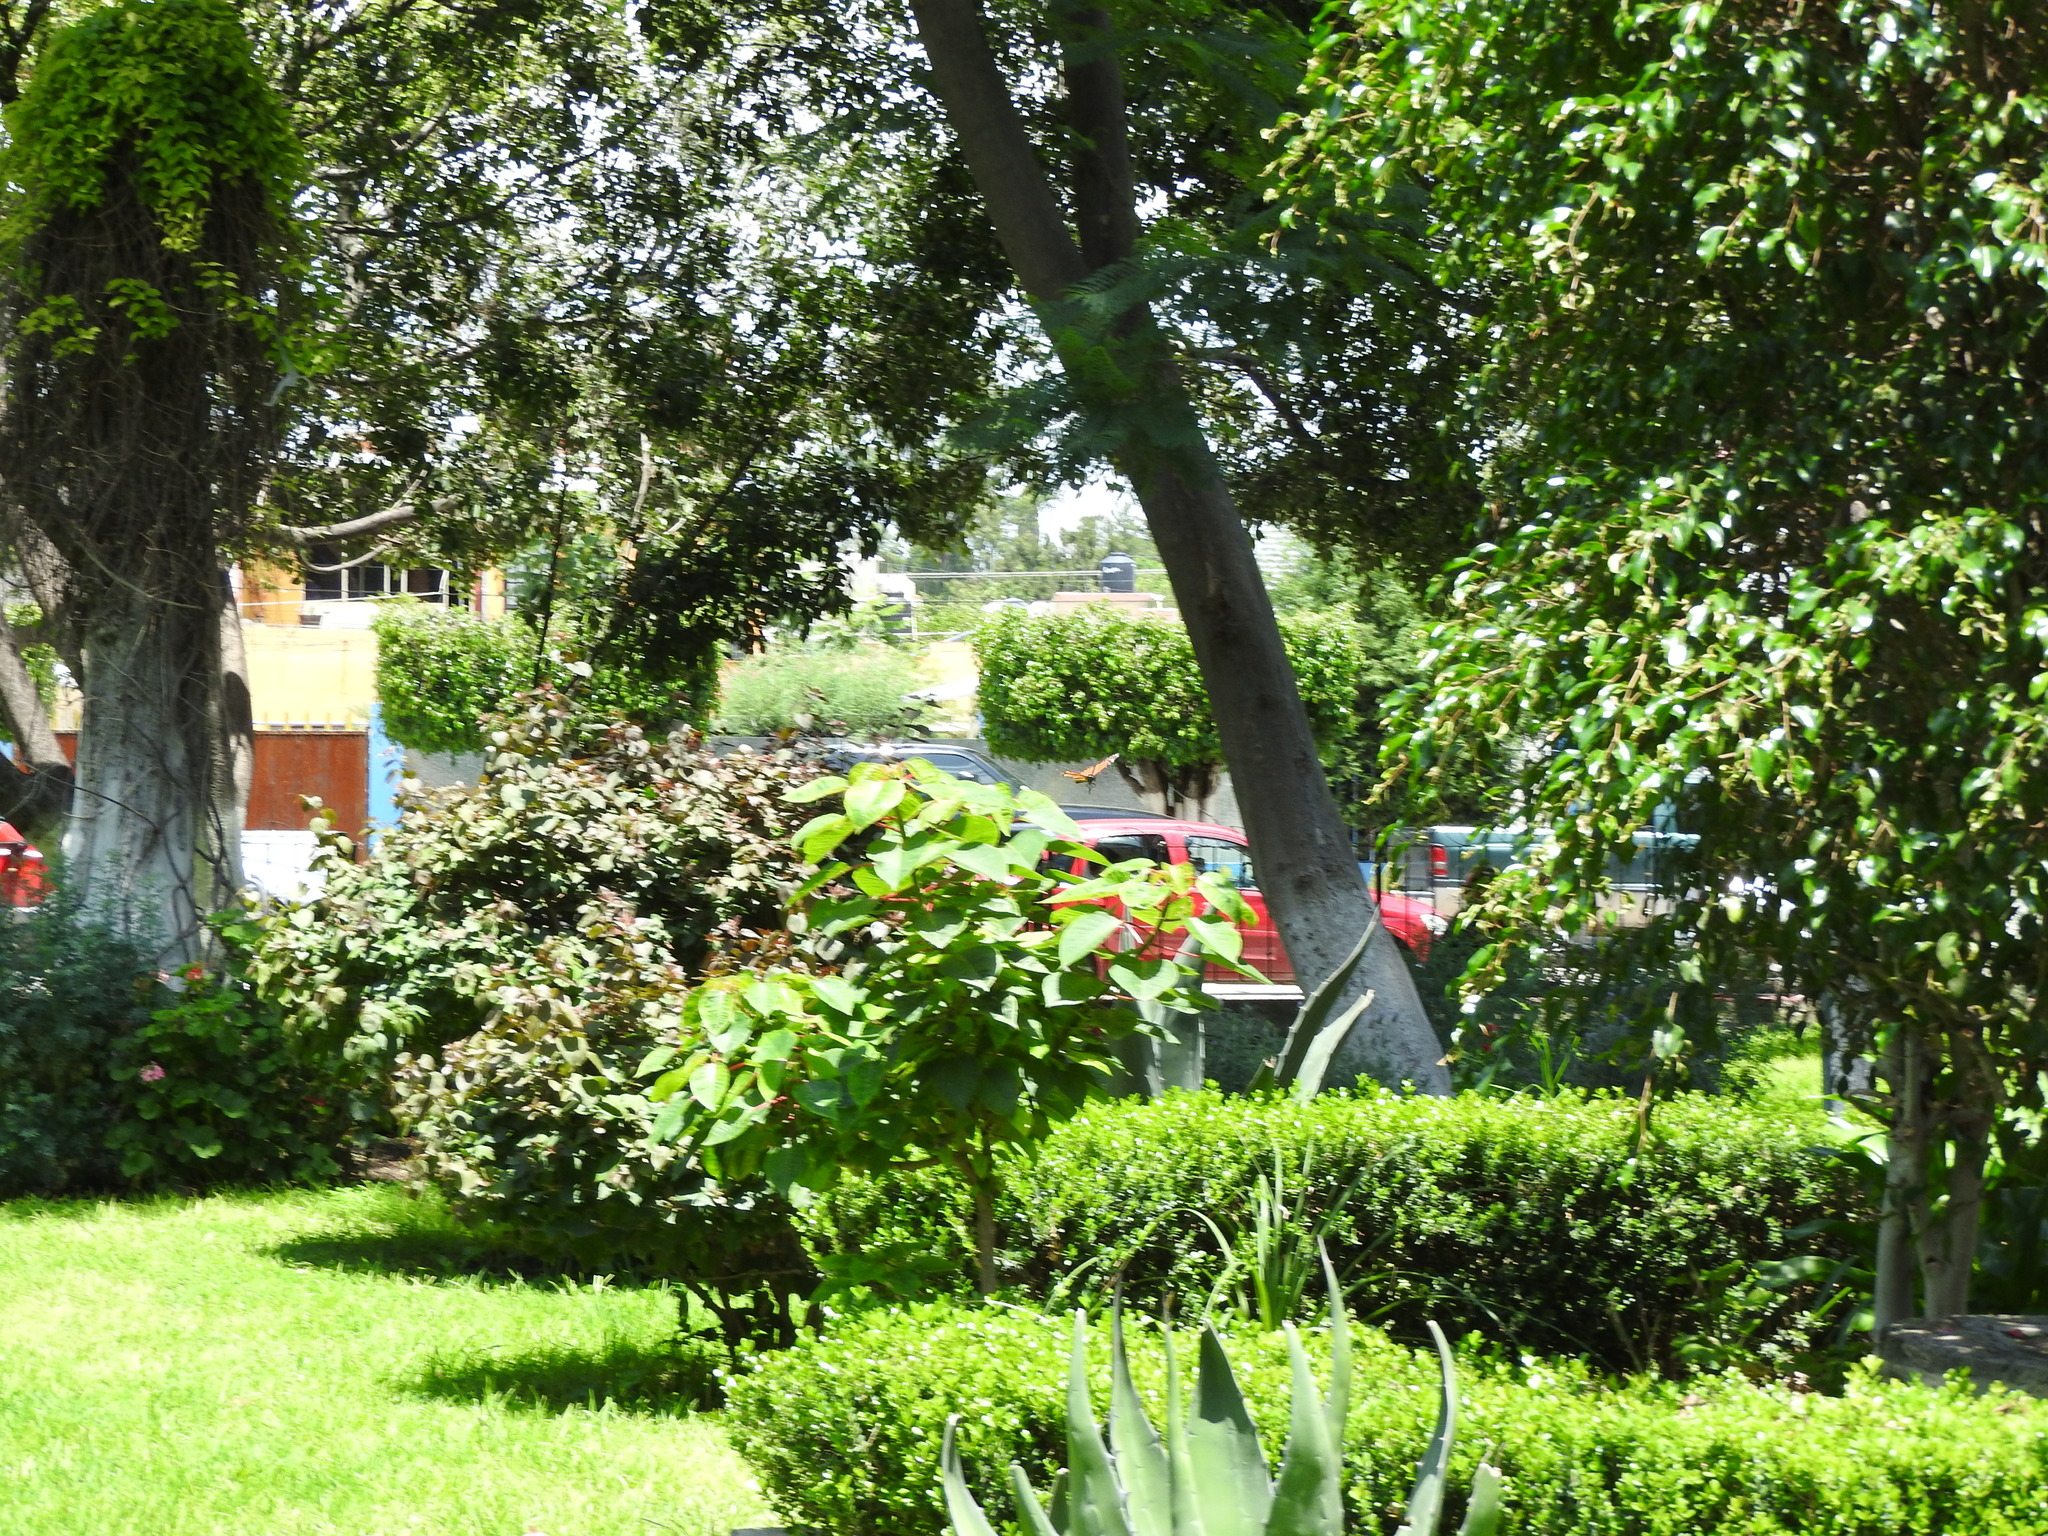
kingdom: Animalia
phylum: Arthropoda
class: Insecta
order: Lepidoptera
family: Nymphalidae
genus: Danaus
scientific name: Danaus plexippus
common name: Monarch
